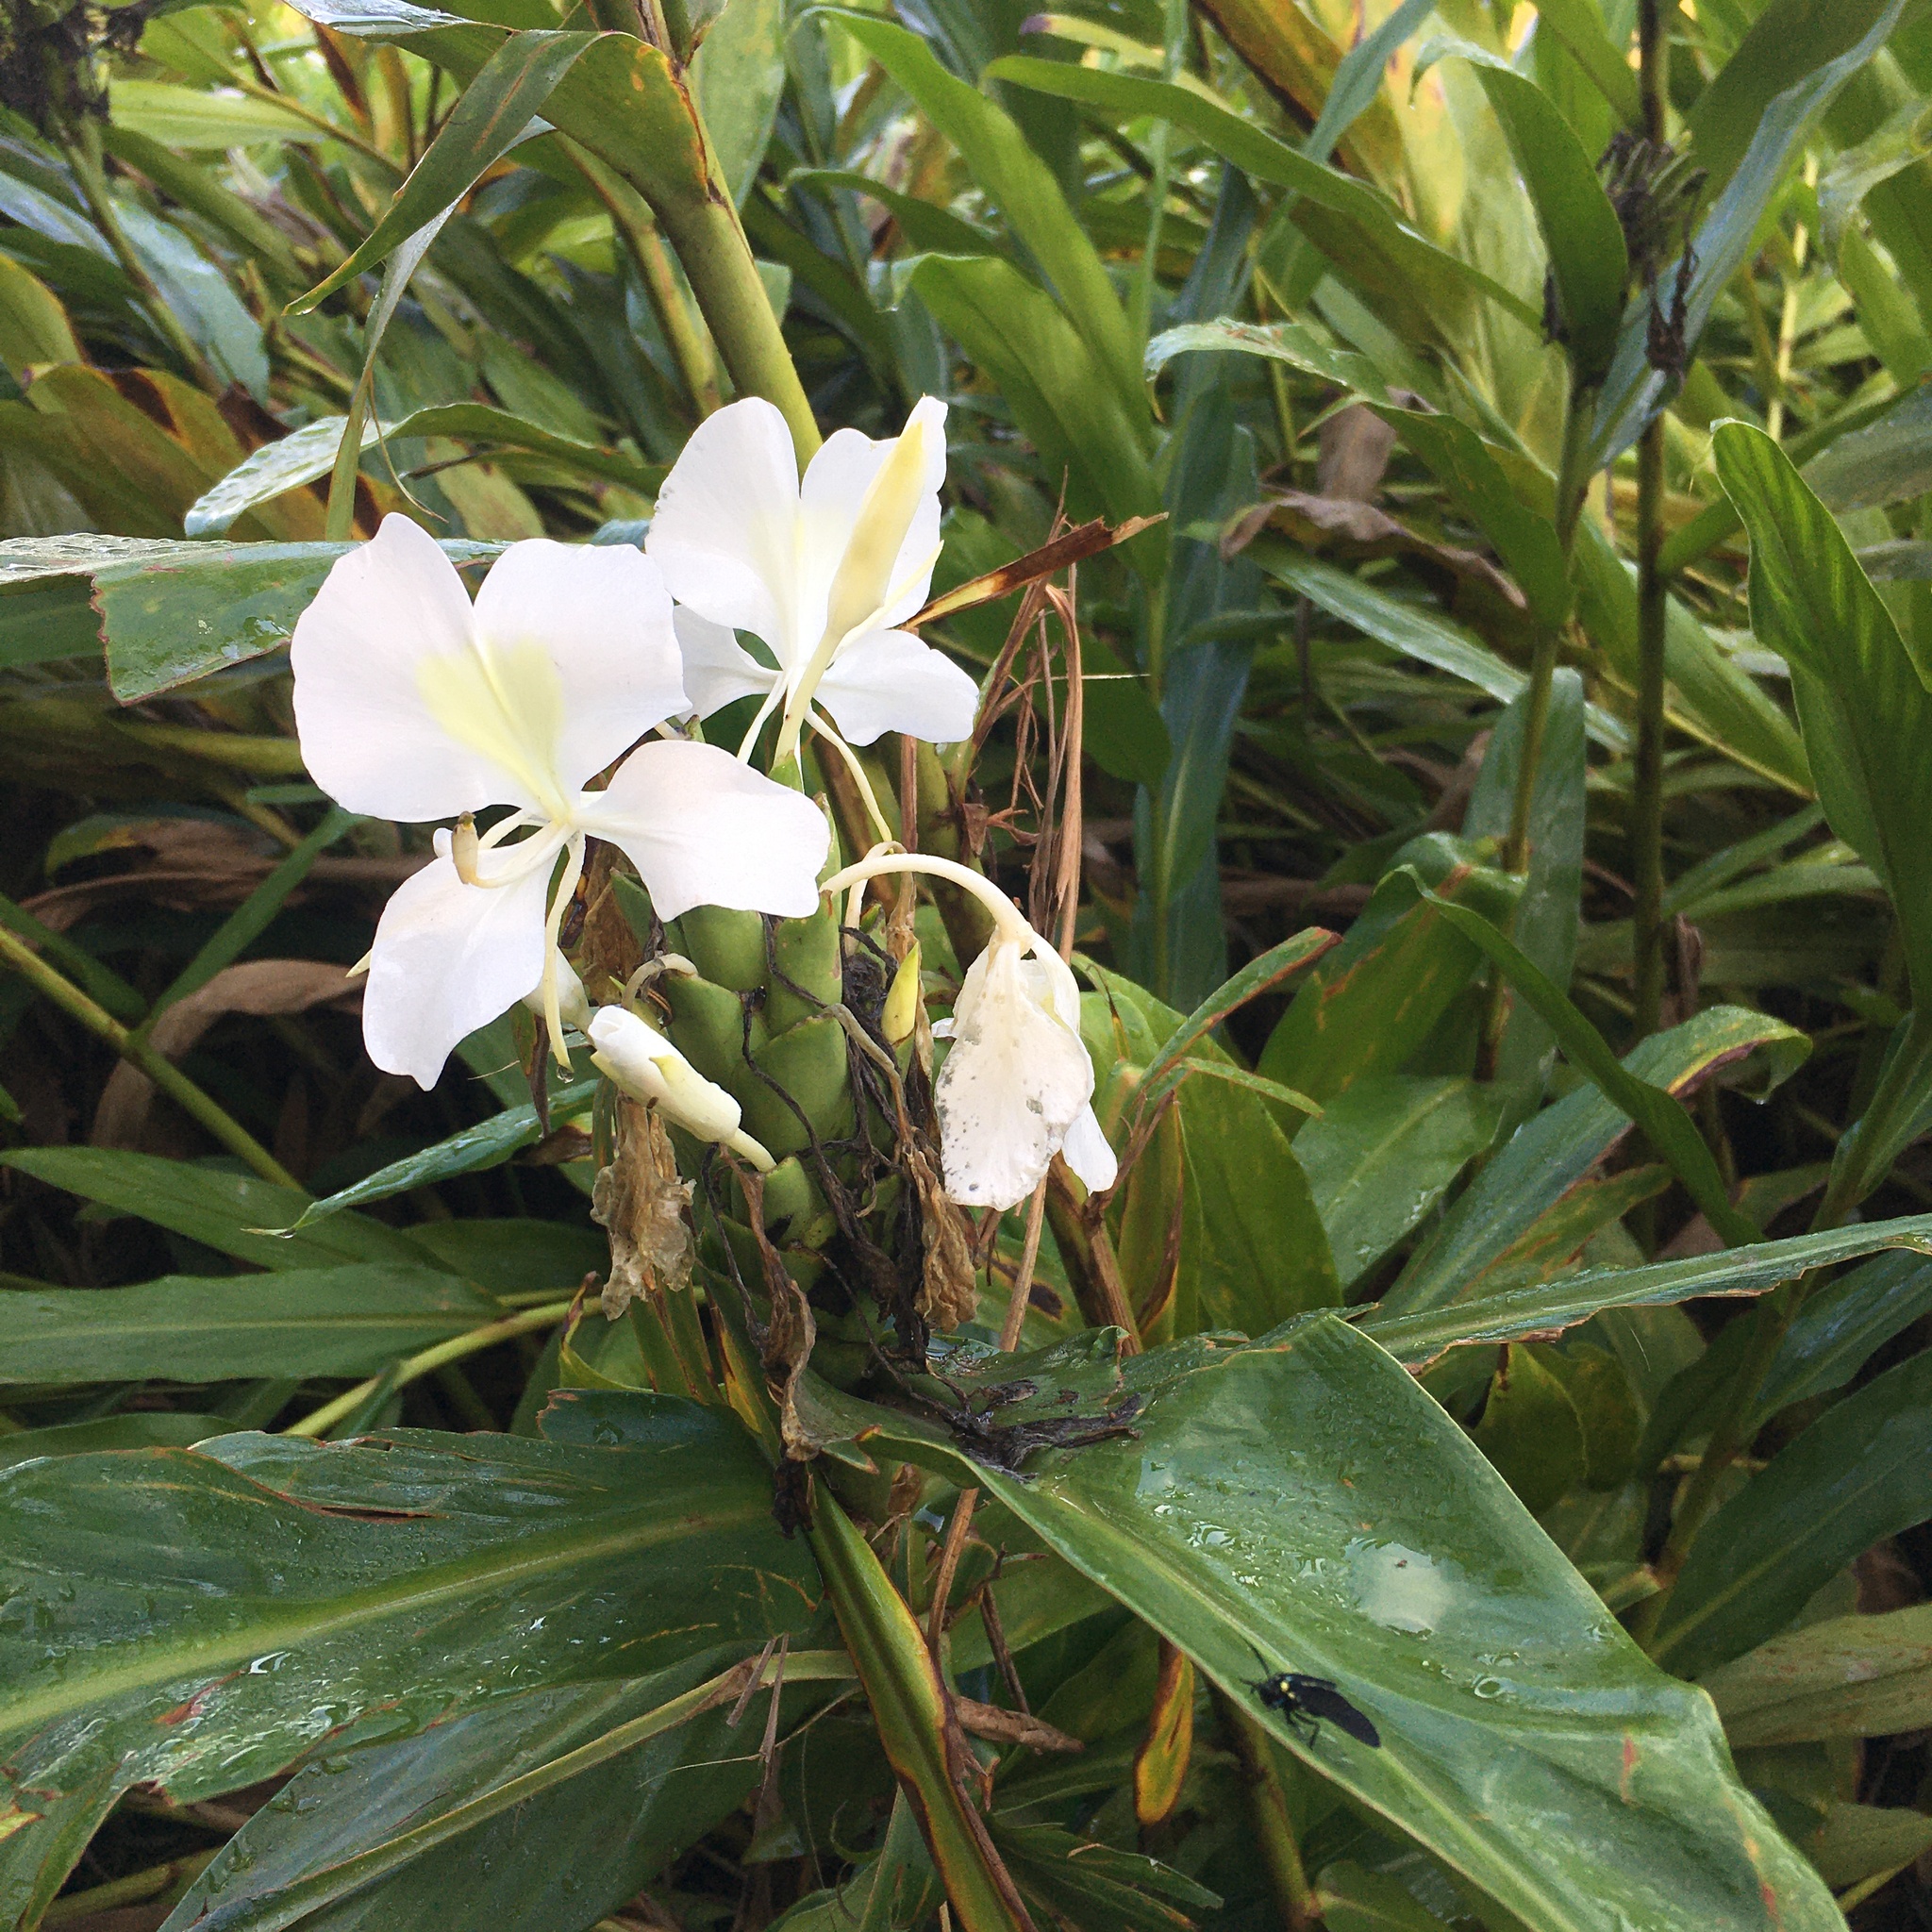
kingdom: Plantae
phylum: Tracheophyta
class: Liliopsida
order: Zingiberales
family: Zingiberaceae
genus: Hedychium
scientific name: Hedychium coronarium
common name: White garland-lily
